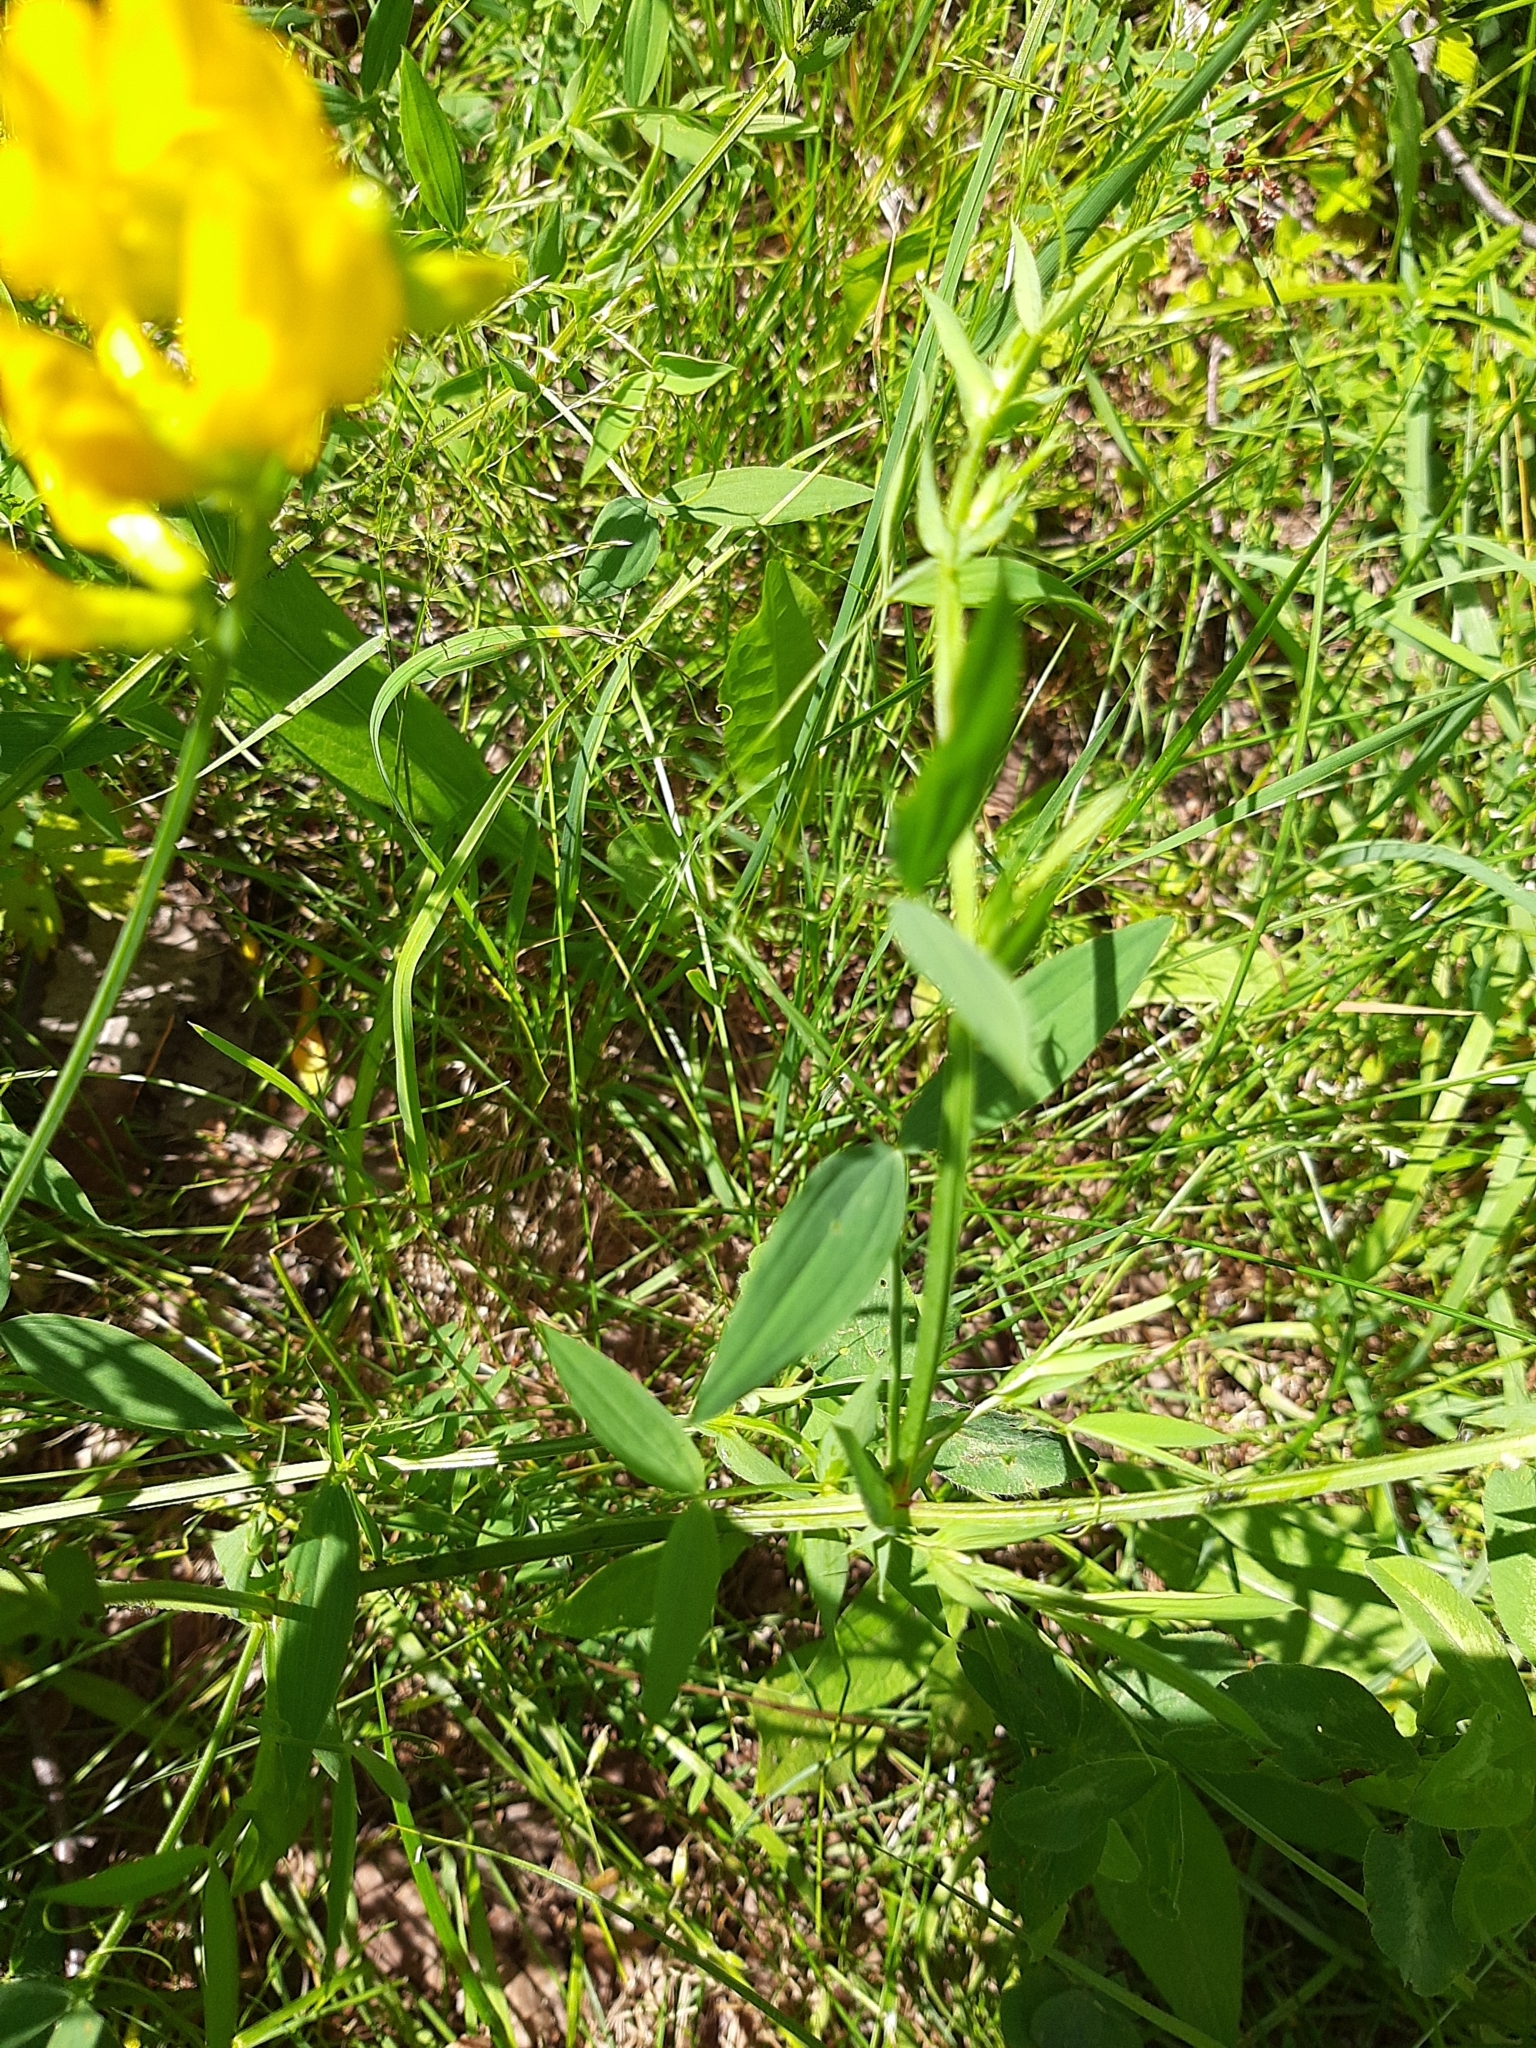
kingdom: Plantae
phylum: Tracheophyta
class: Magnoliopsida
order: Fabales
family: Fabaceae
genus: Lathyrus
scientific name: Lathyrus pratensis
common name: Meadow vetchling
